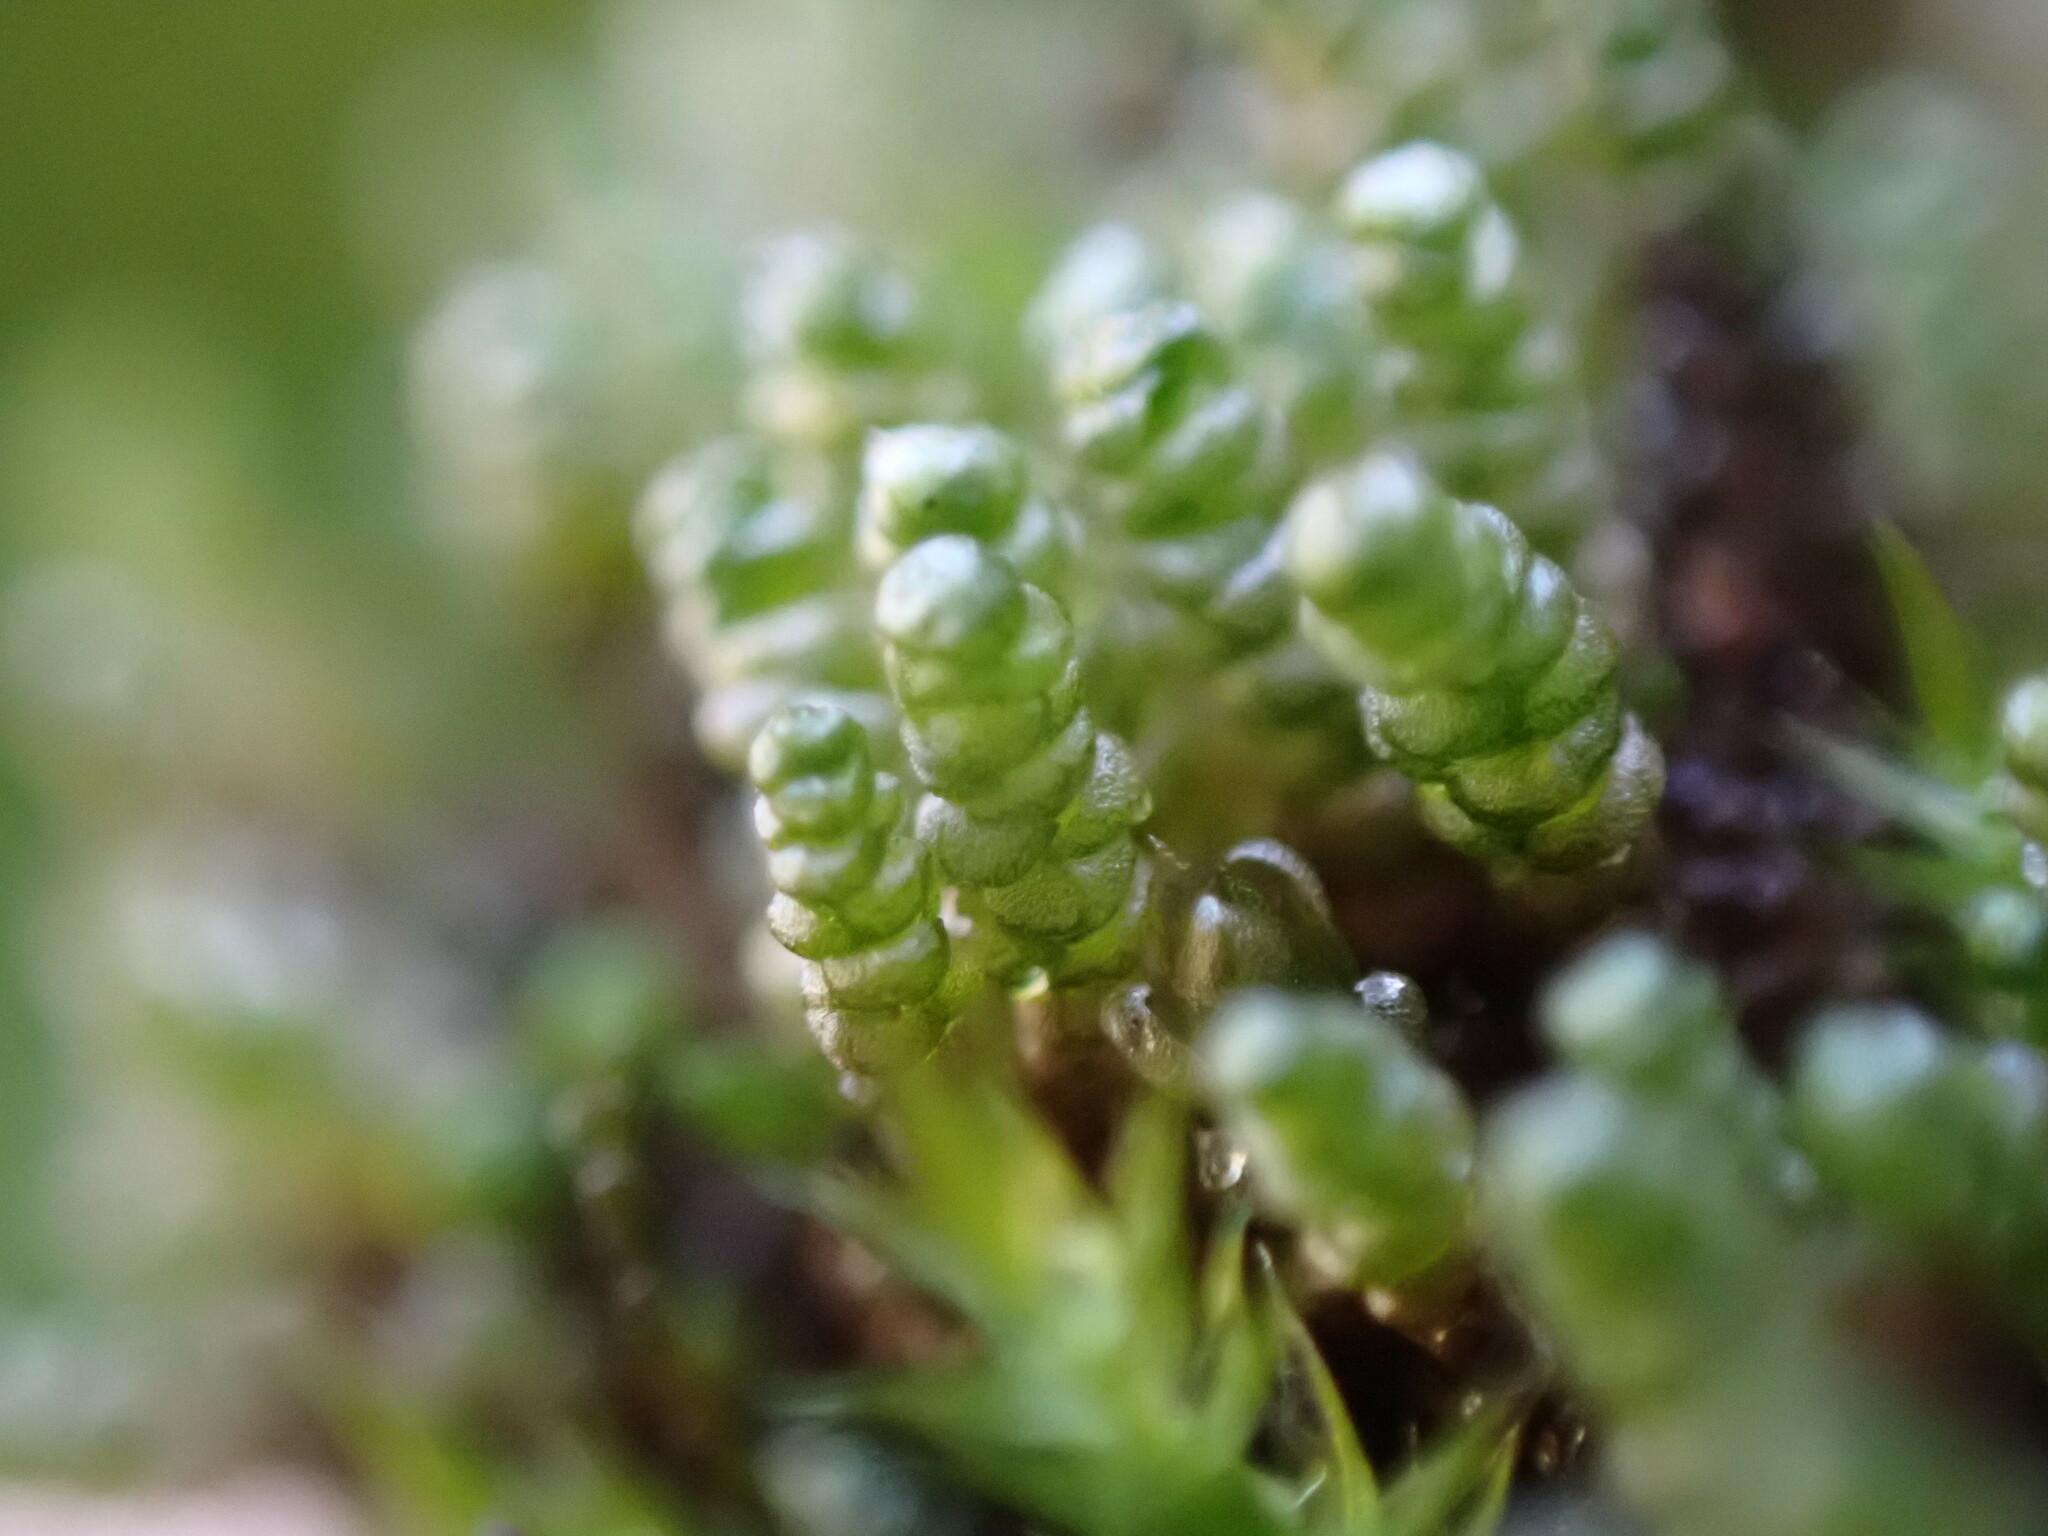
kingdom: Plantae
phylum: Bryophyta
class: Bryopsida
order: Bryales
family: Bryaceae
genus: Bryum
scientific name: Bryum argenteum
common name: Silver-moss
